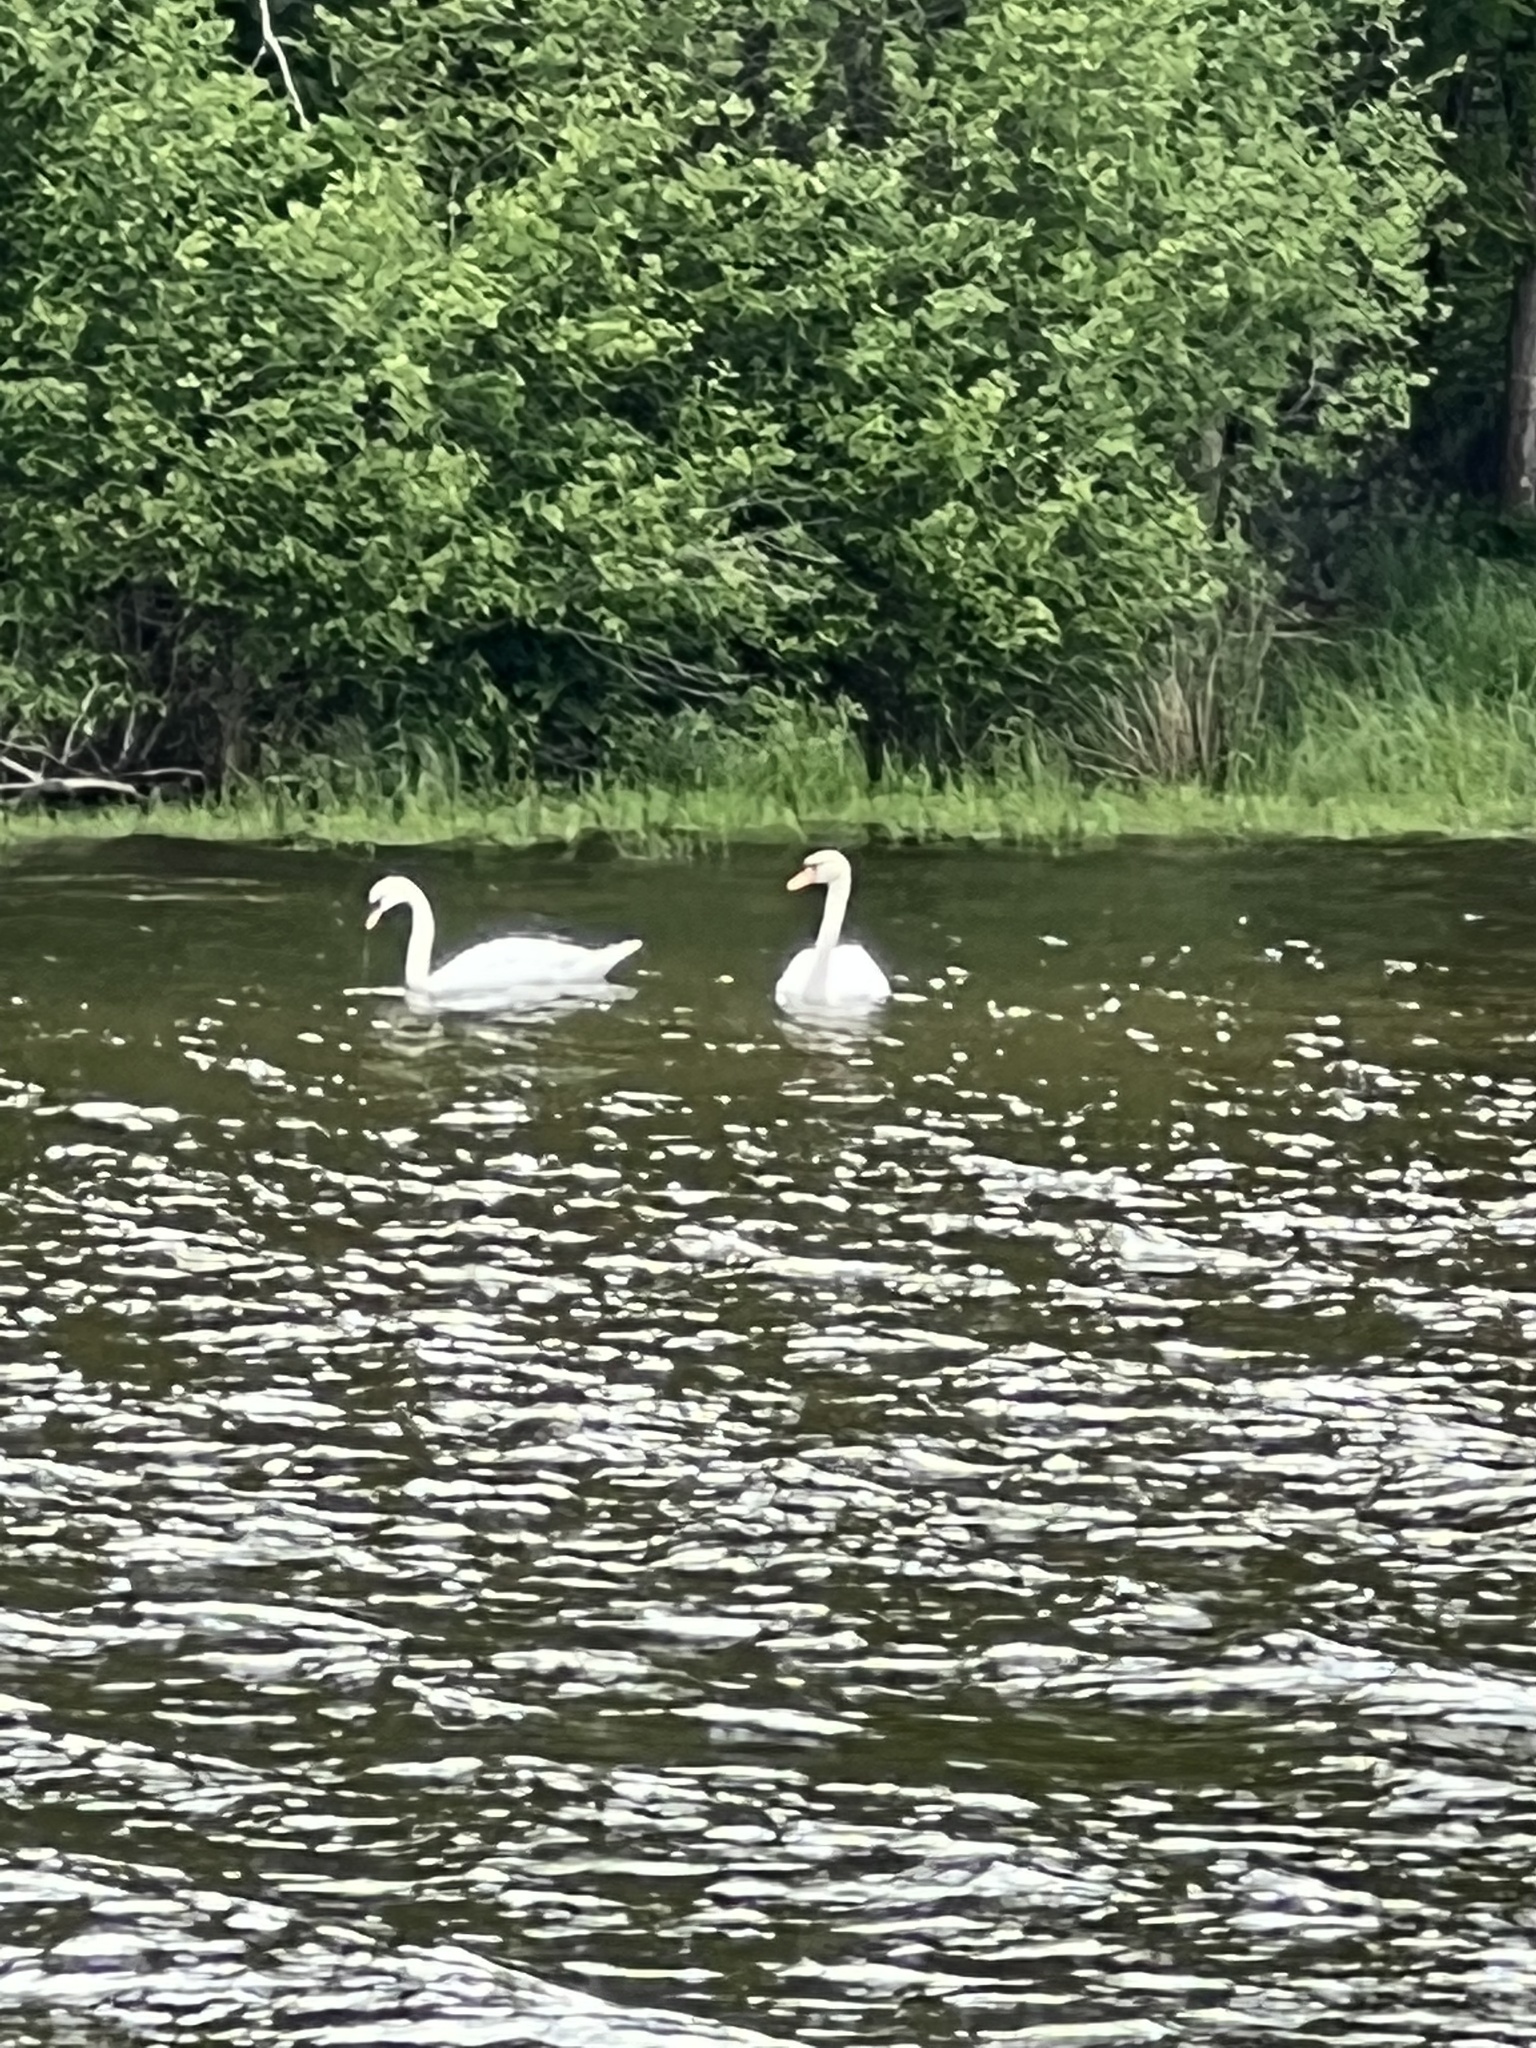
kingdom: Animalia
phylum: Chordata
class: Aves
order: Anseriformes
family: Anatidae
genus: Cygnus
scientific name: Cygnus olor
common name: Mute swan
